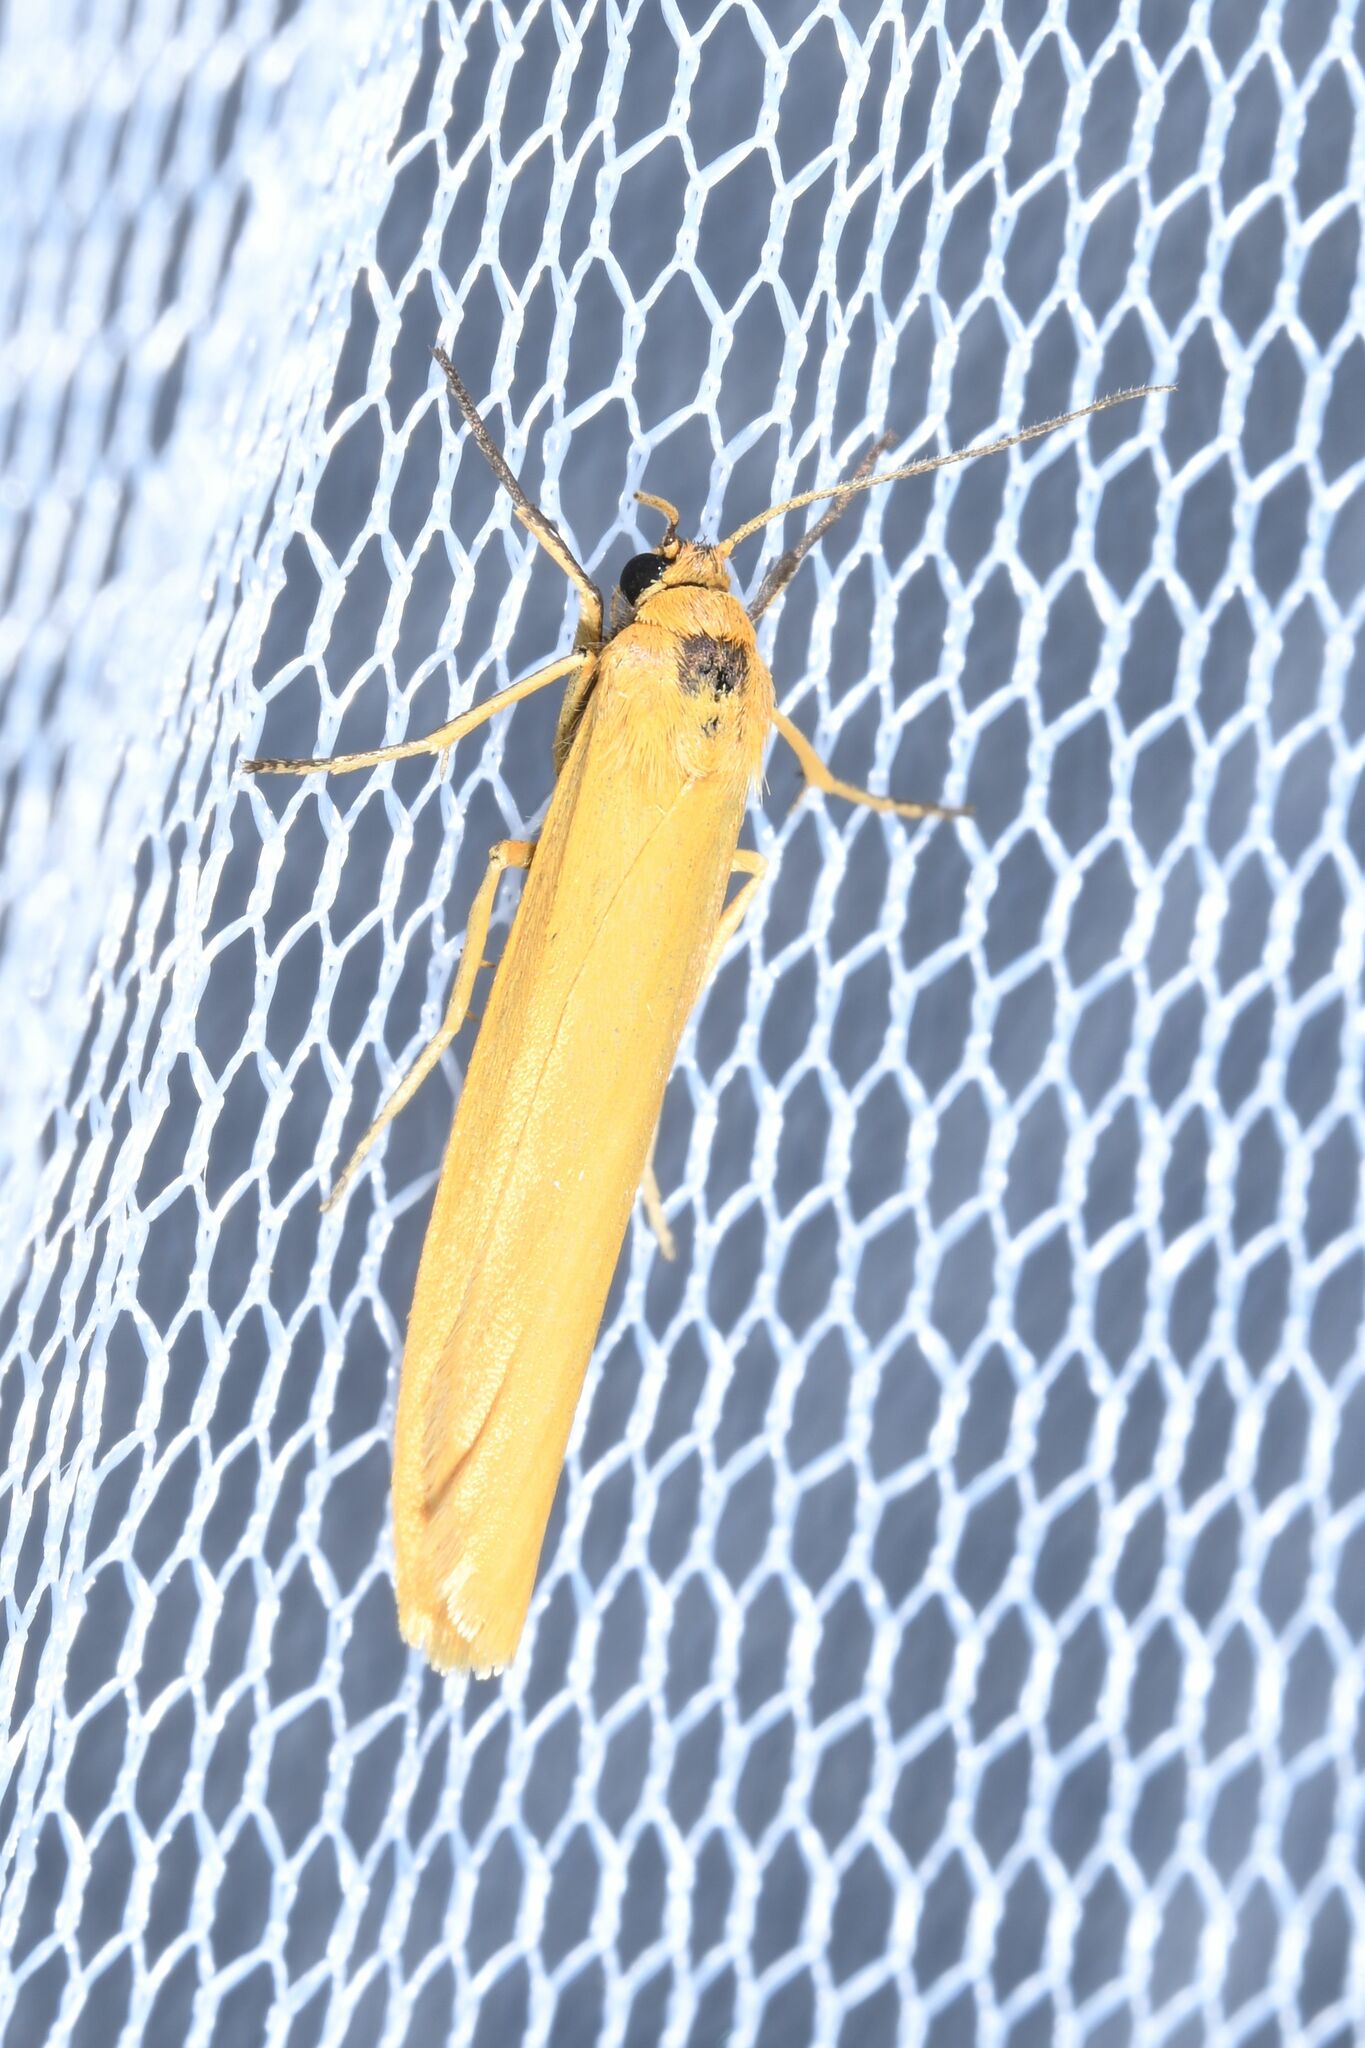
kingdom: Animalia
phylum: Arthropoda
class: Insecta
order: Lepidoptera
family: Erebidae
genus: Indalia
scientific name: Indalia lutarella
